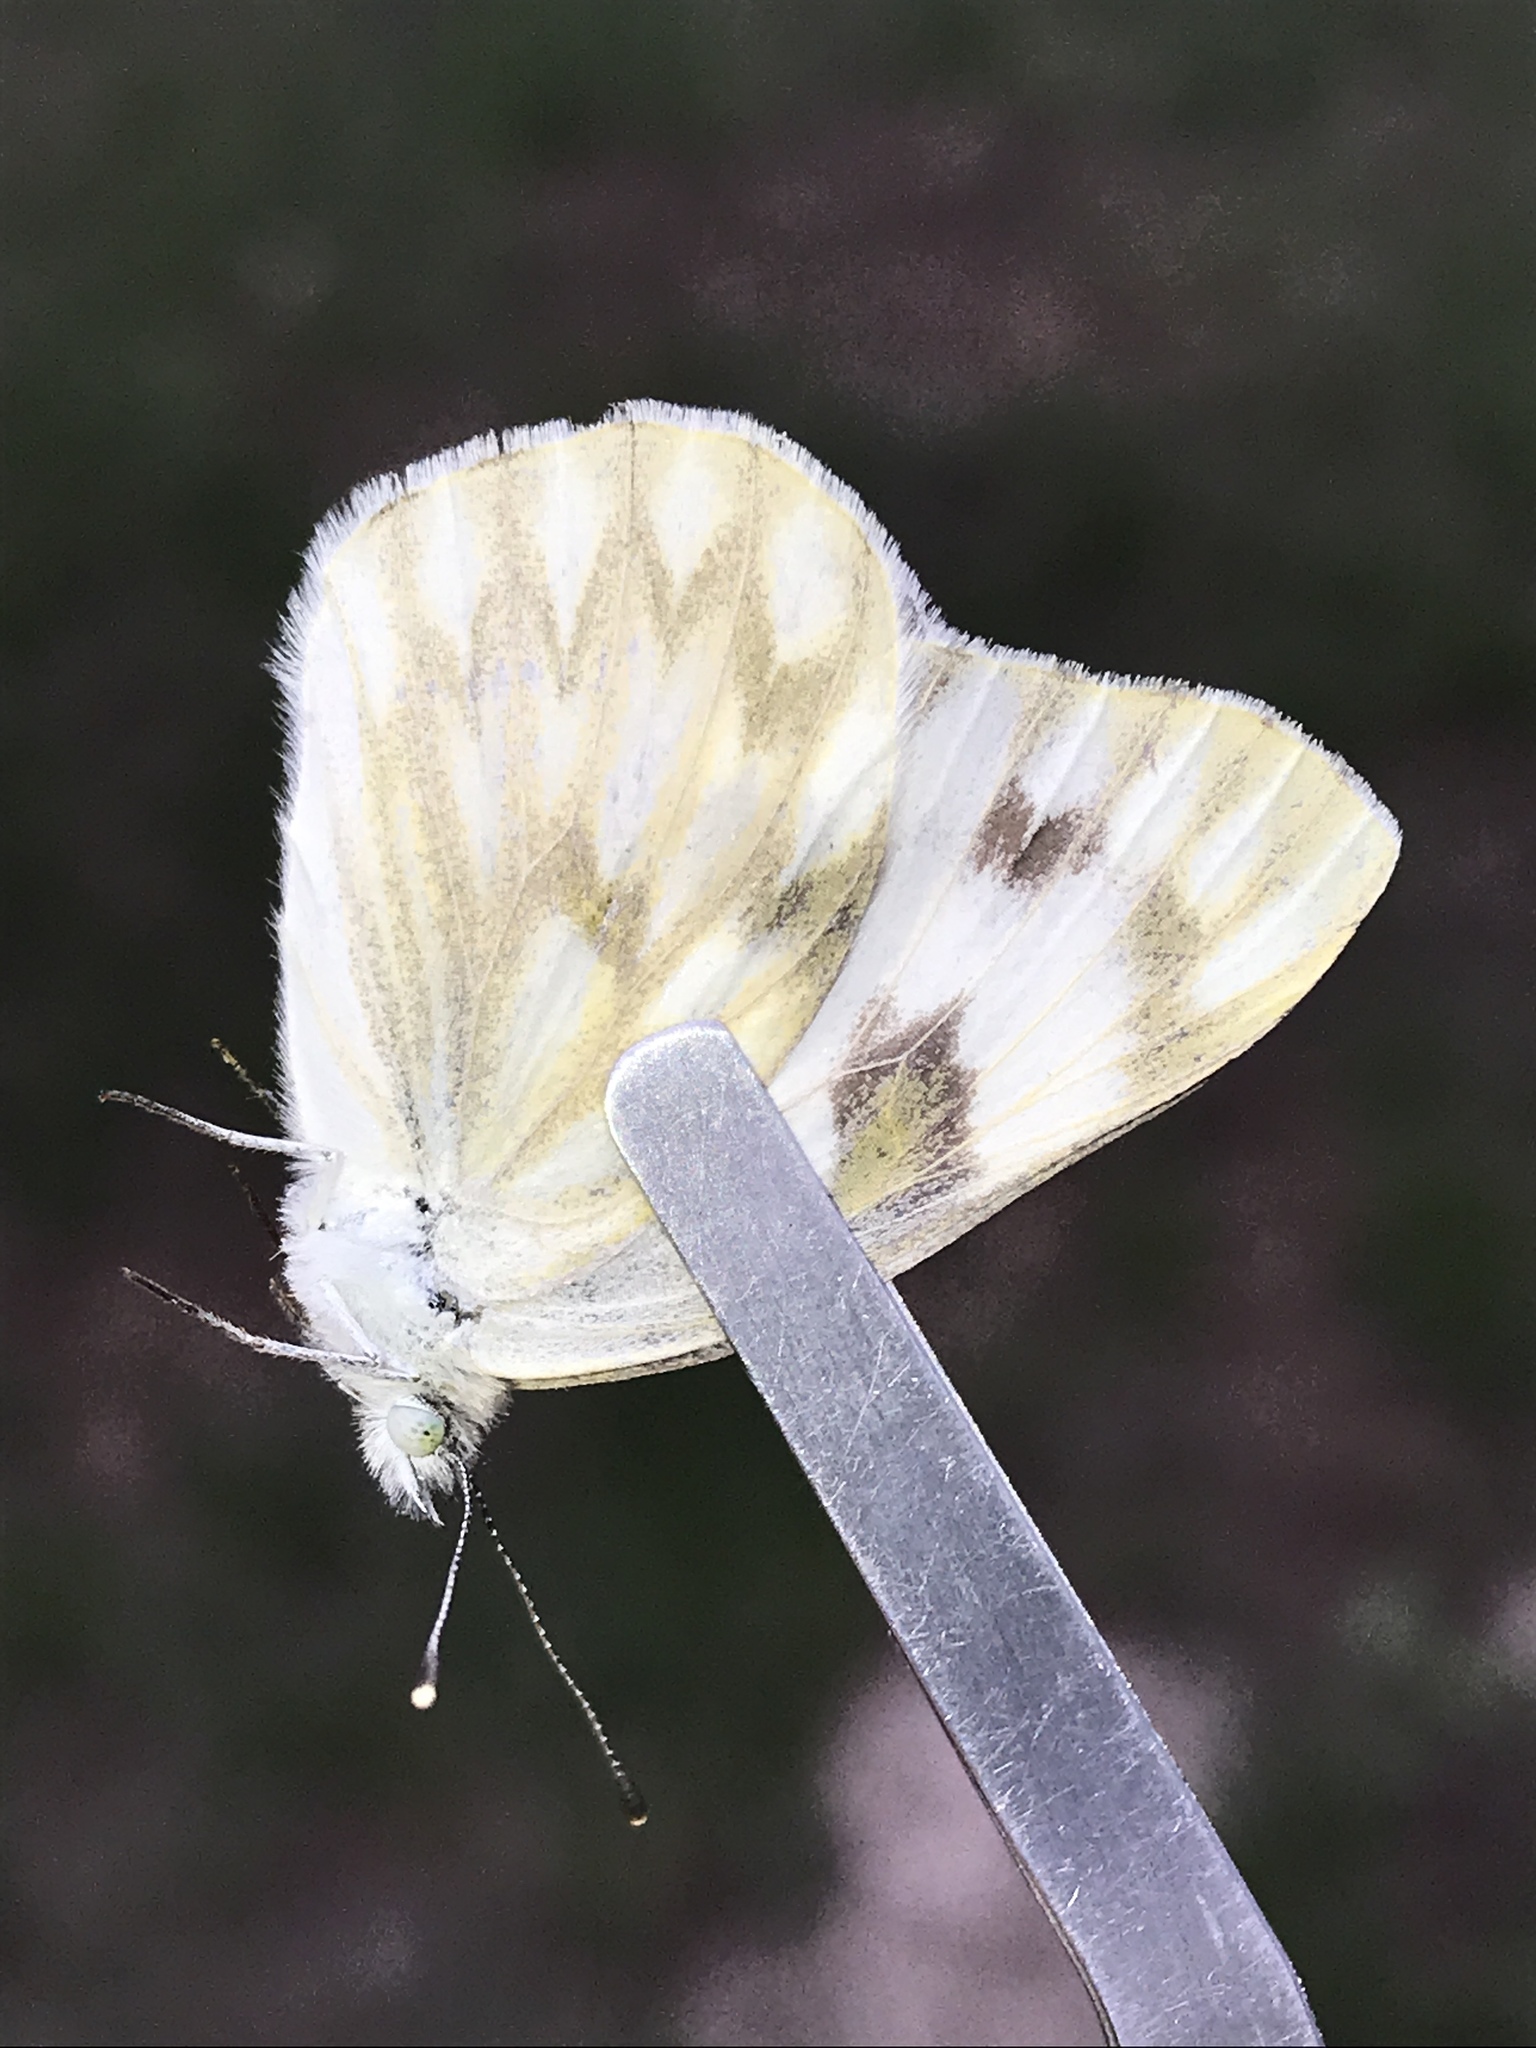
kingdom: Animalia
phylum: Arthropoda
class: Insecta
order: Lepidoptera
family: Pieridae
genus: Pontia
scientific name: Pontia protodice
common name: Checkered white
